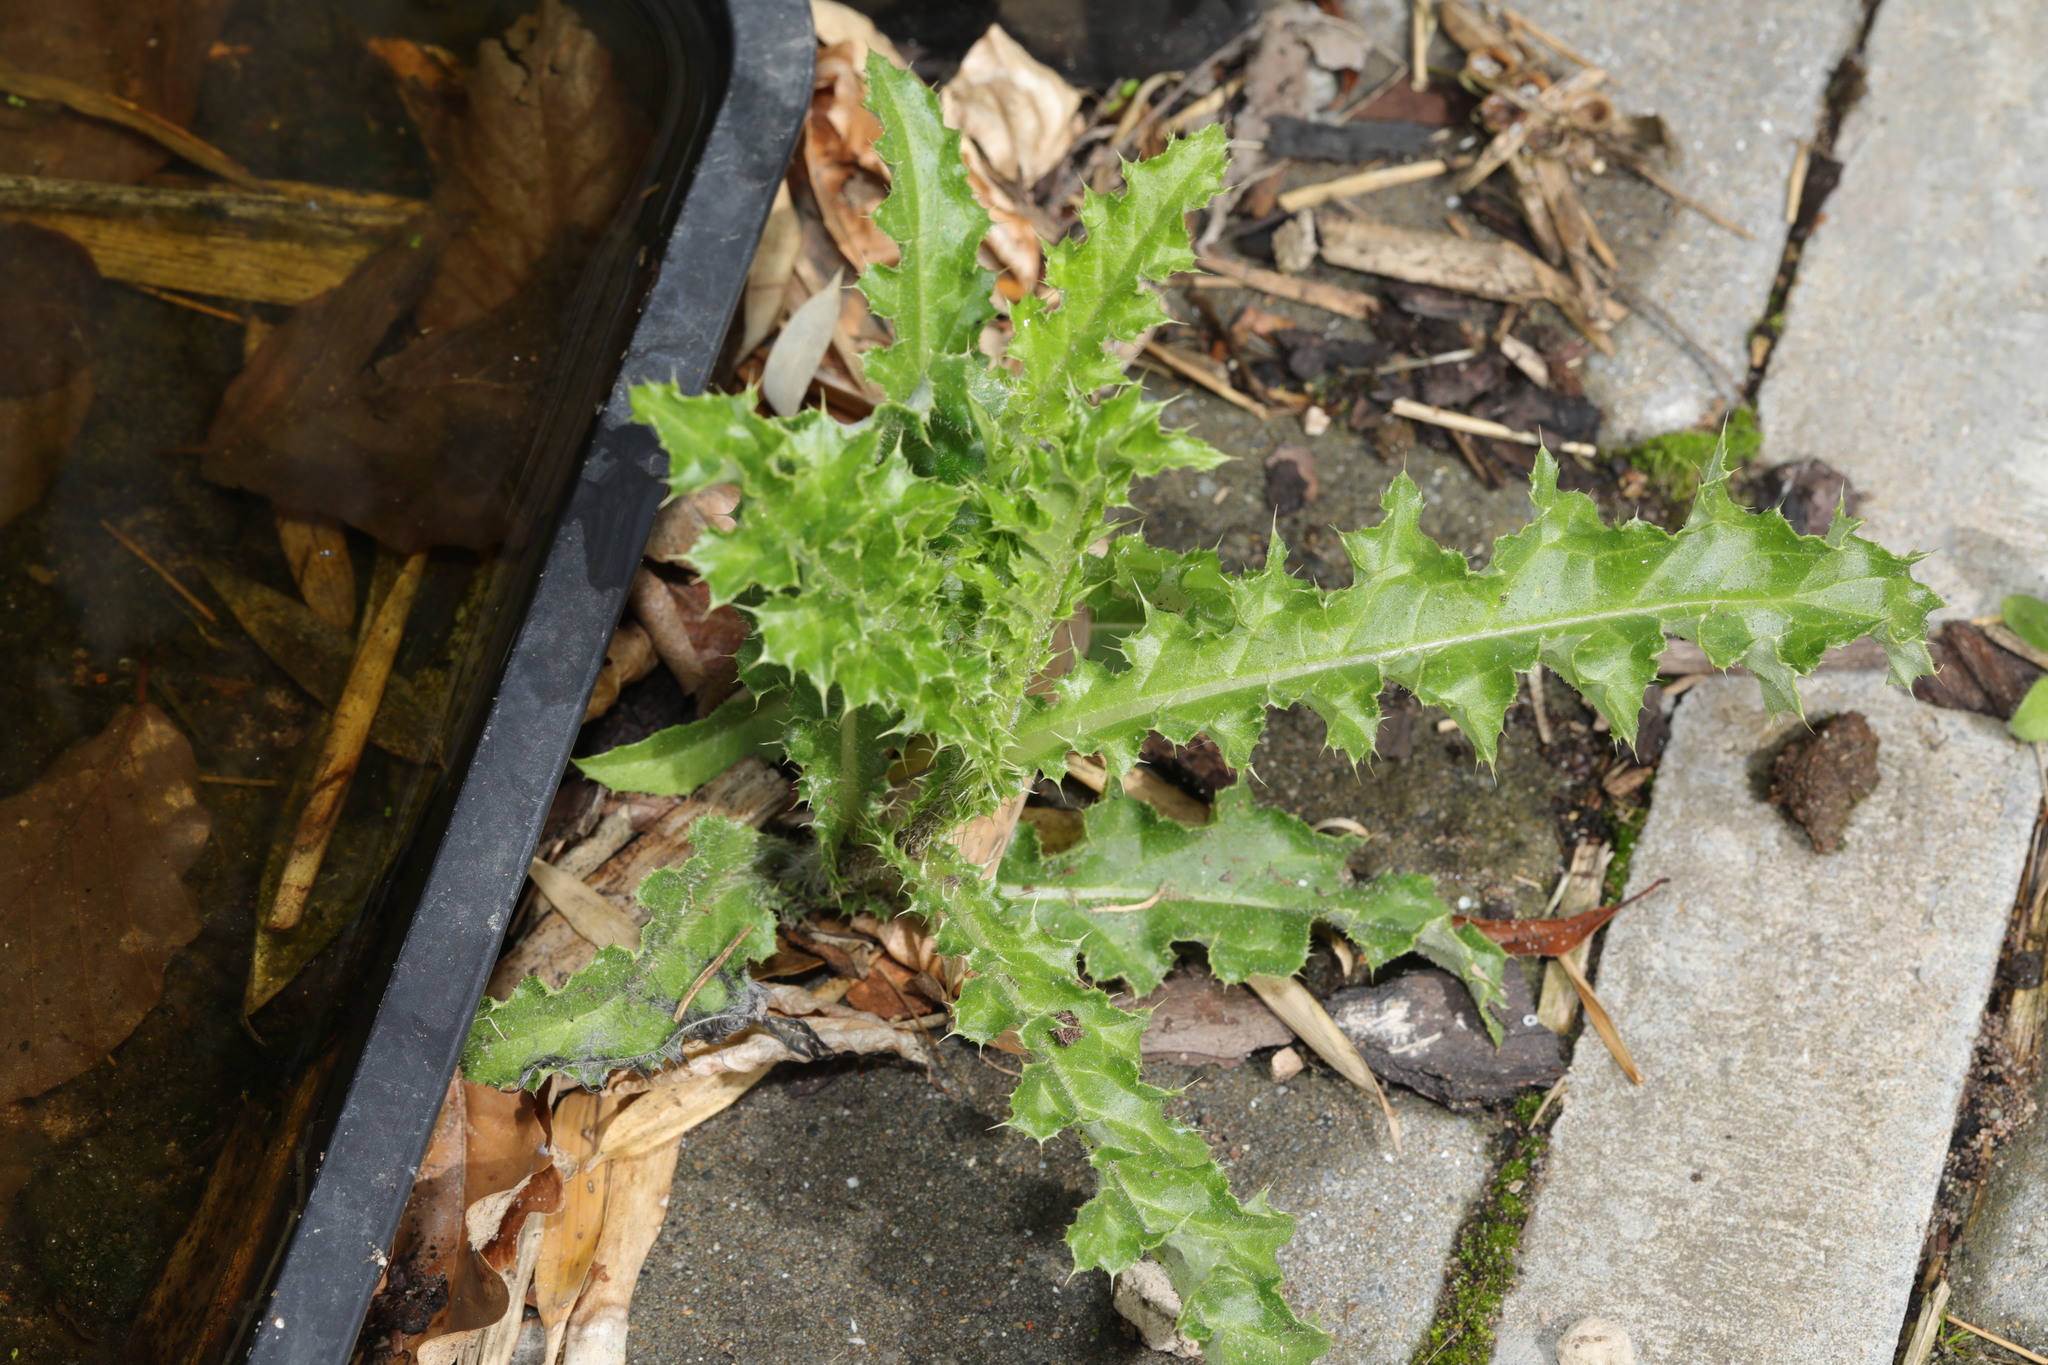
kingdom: Plantae
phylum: Tracheophyta
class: Magnoliopsida
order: Asterales
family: Asteraceae
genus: Cirsium
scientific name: Cirsium arvense
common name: Creeping thistle
